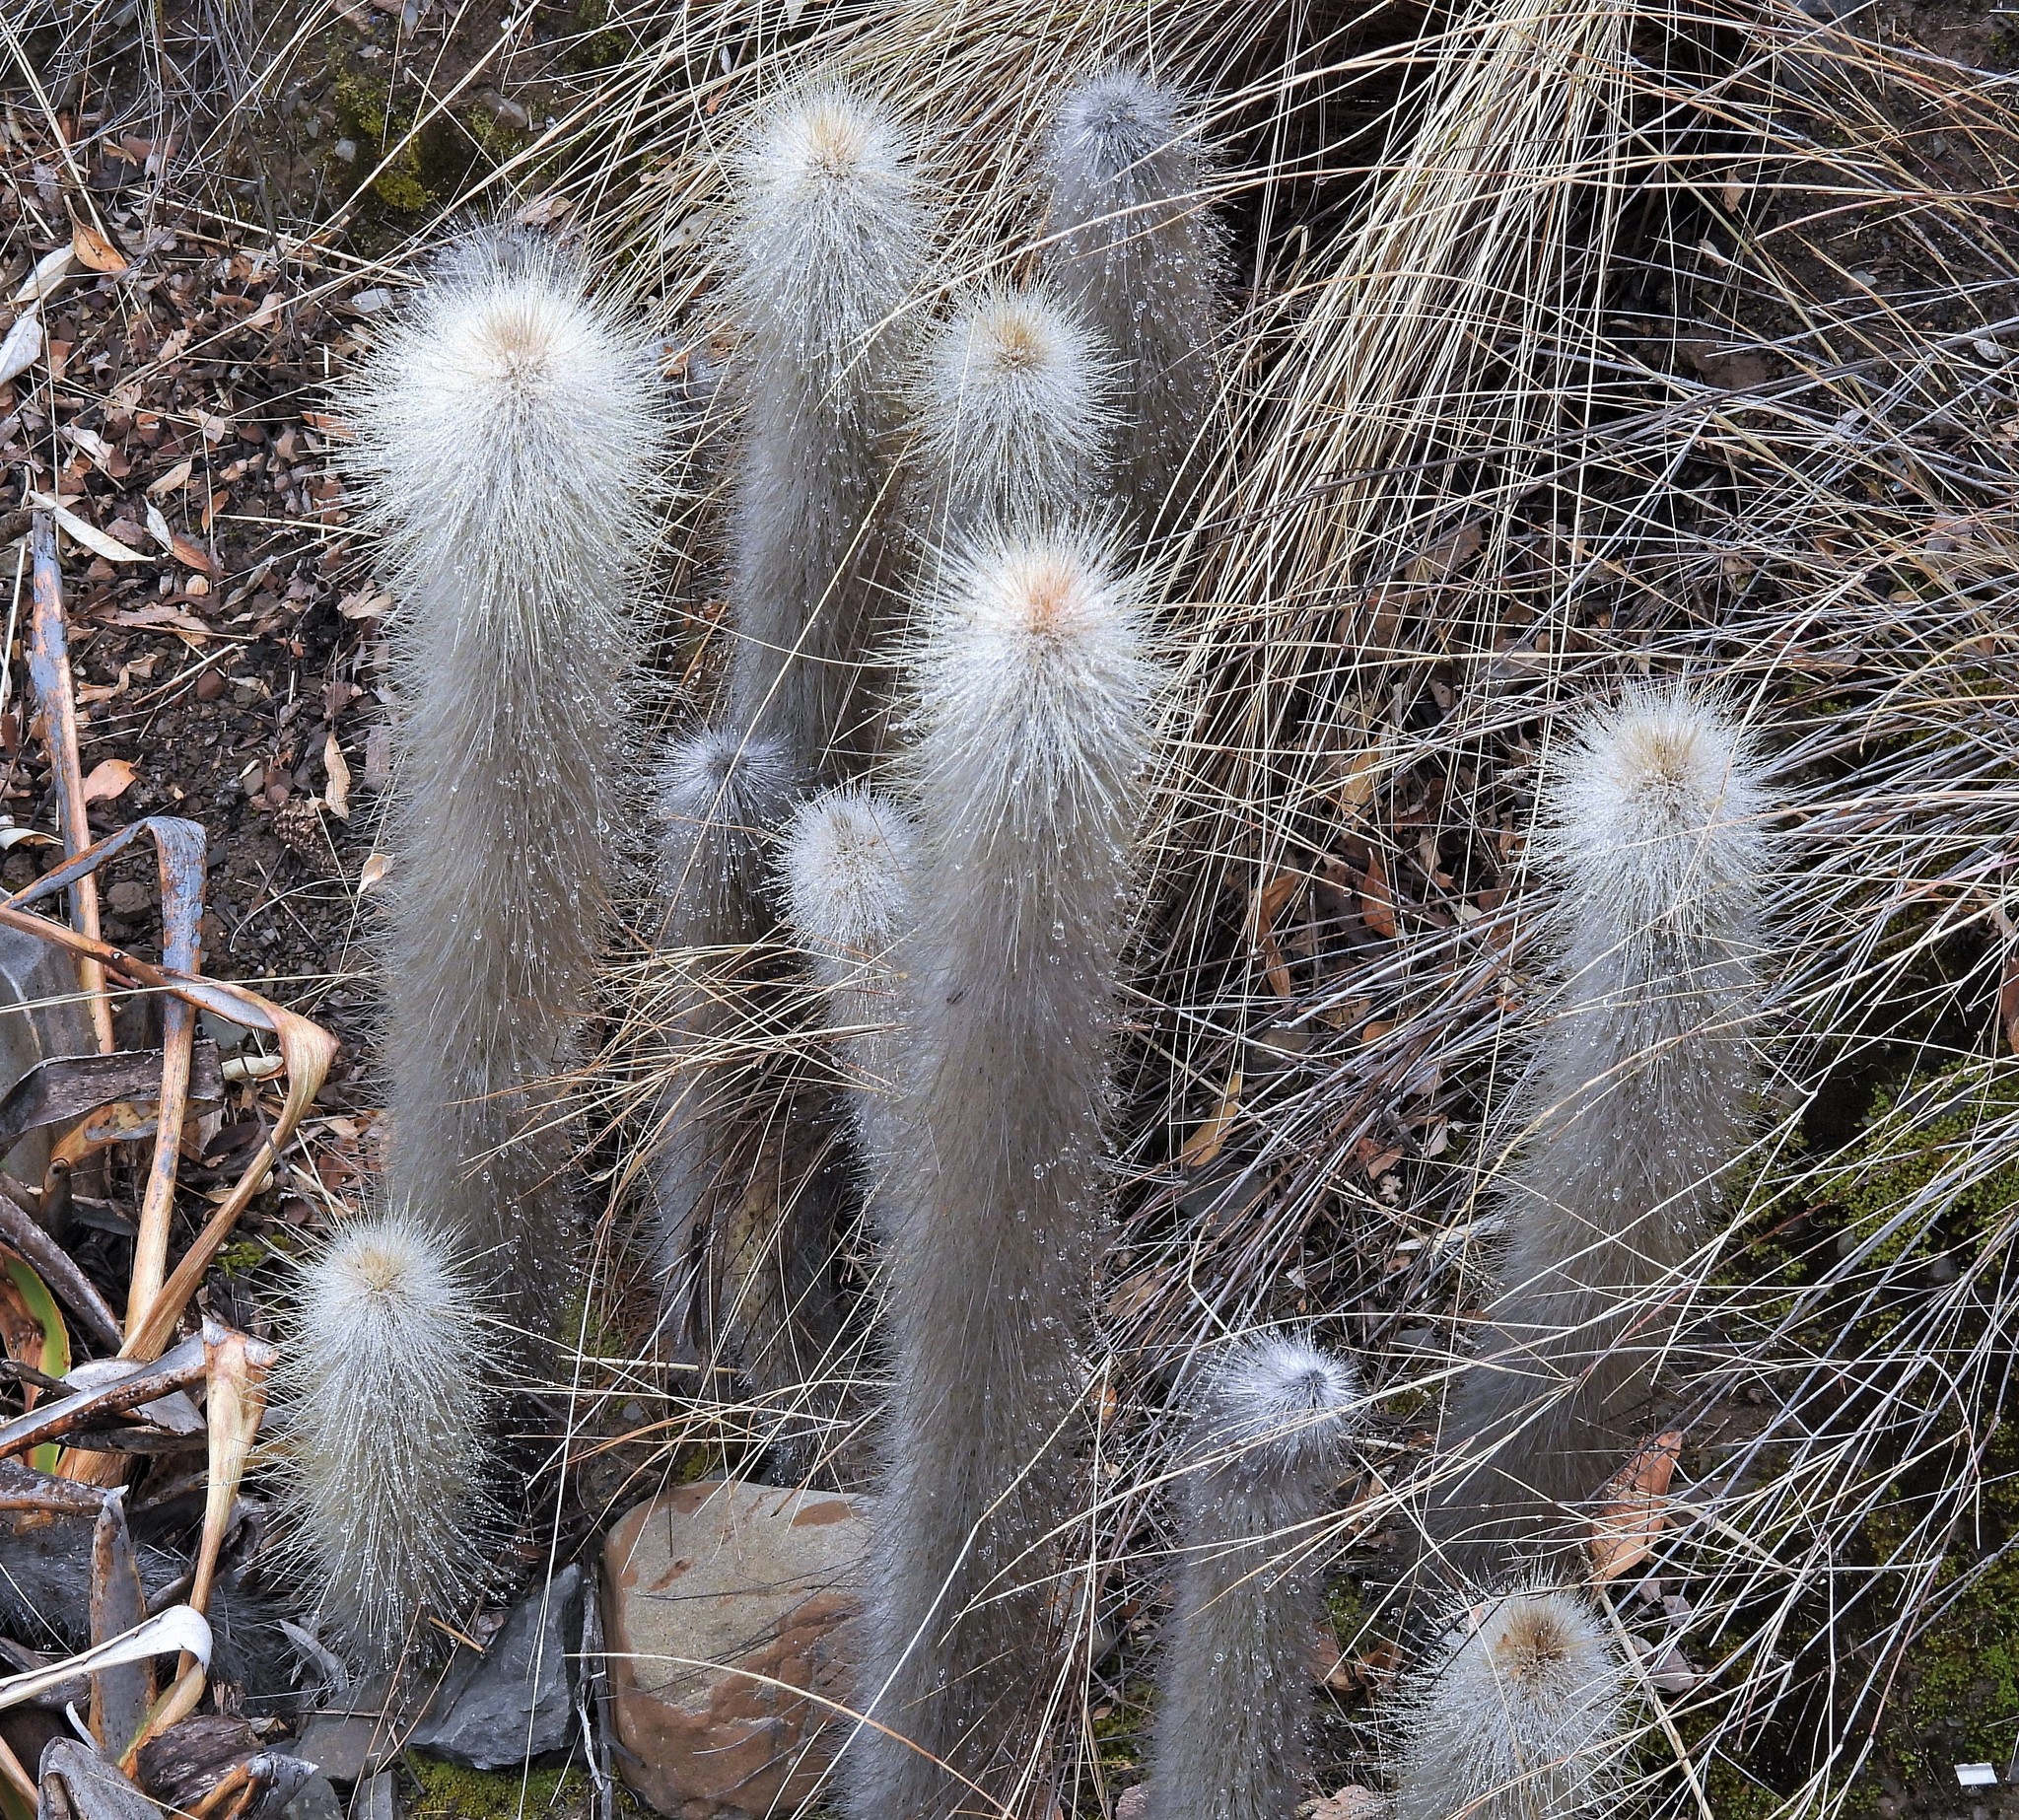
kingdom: Plantae
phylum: Tracheophyta
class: Magnoliopsida
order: Caryophyllales
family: Cactaceae
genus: Cleistocactus
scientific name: Cleistocactus hyalacanthus
